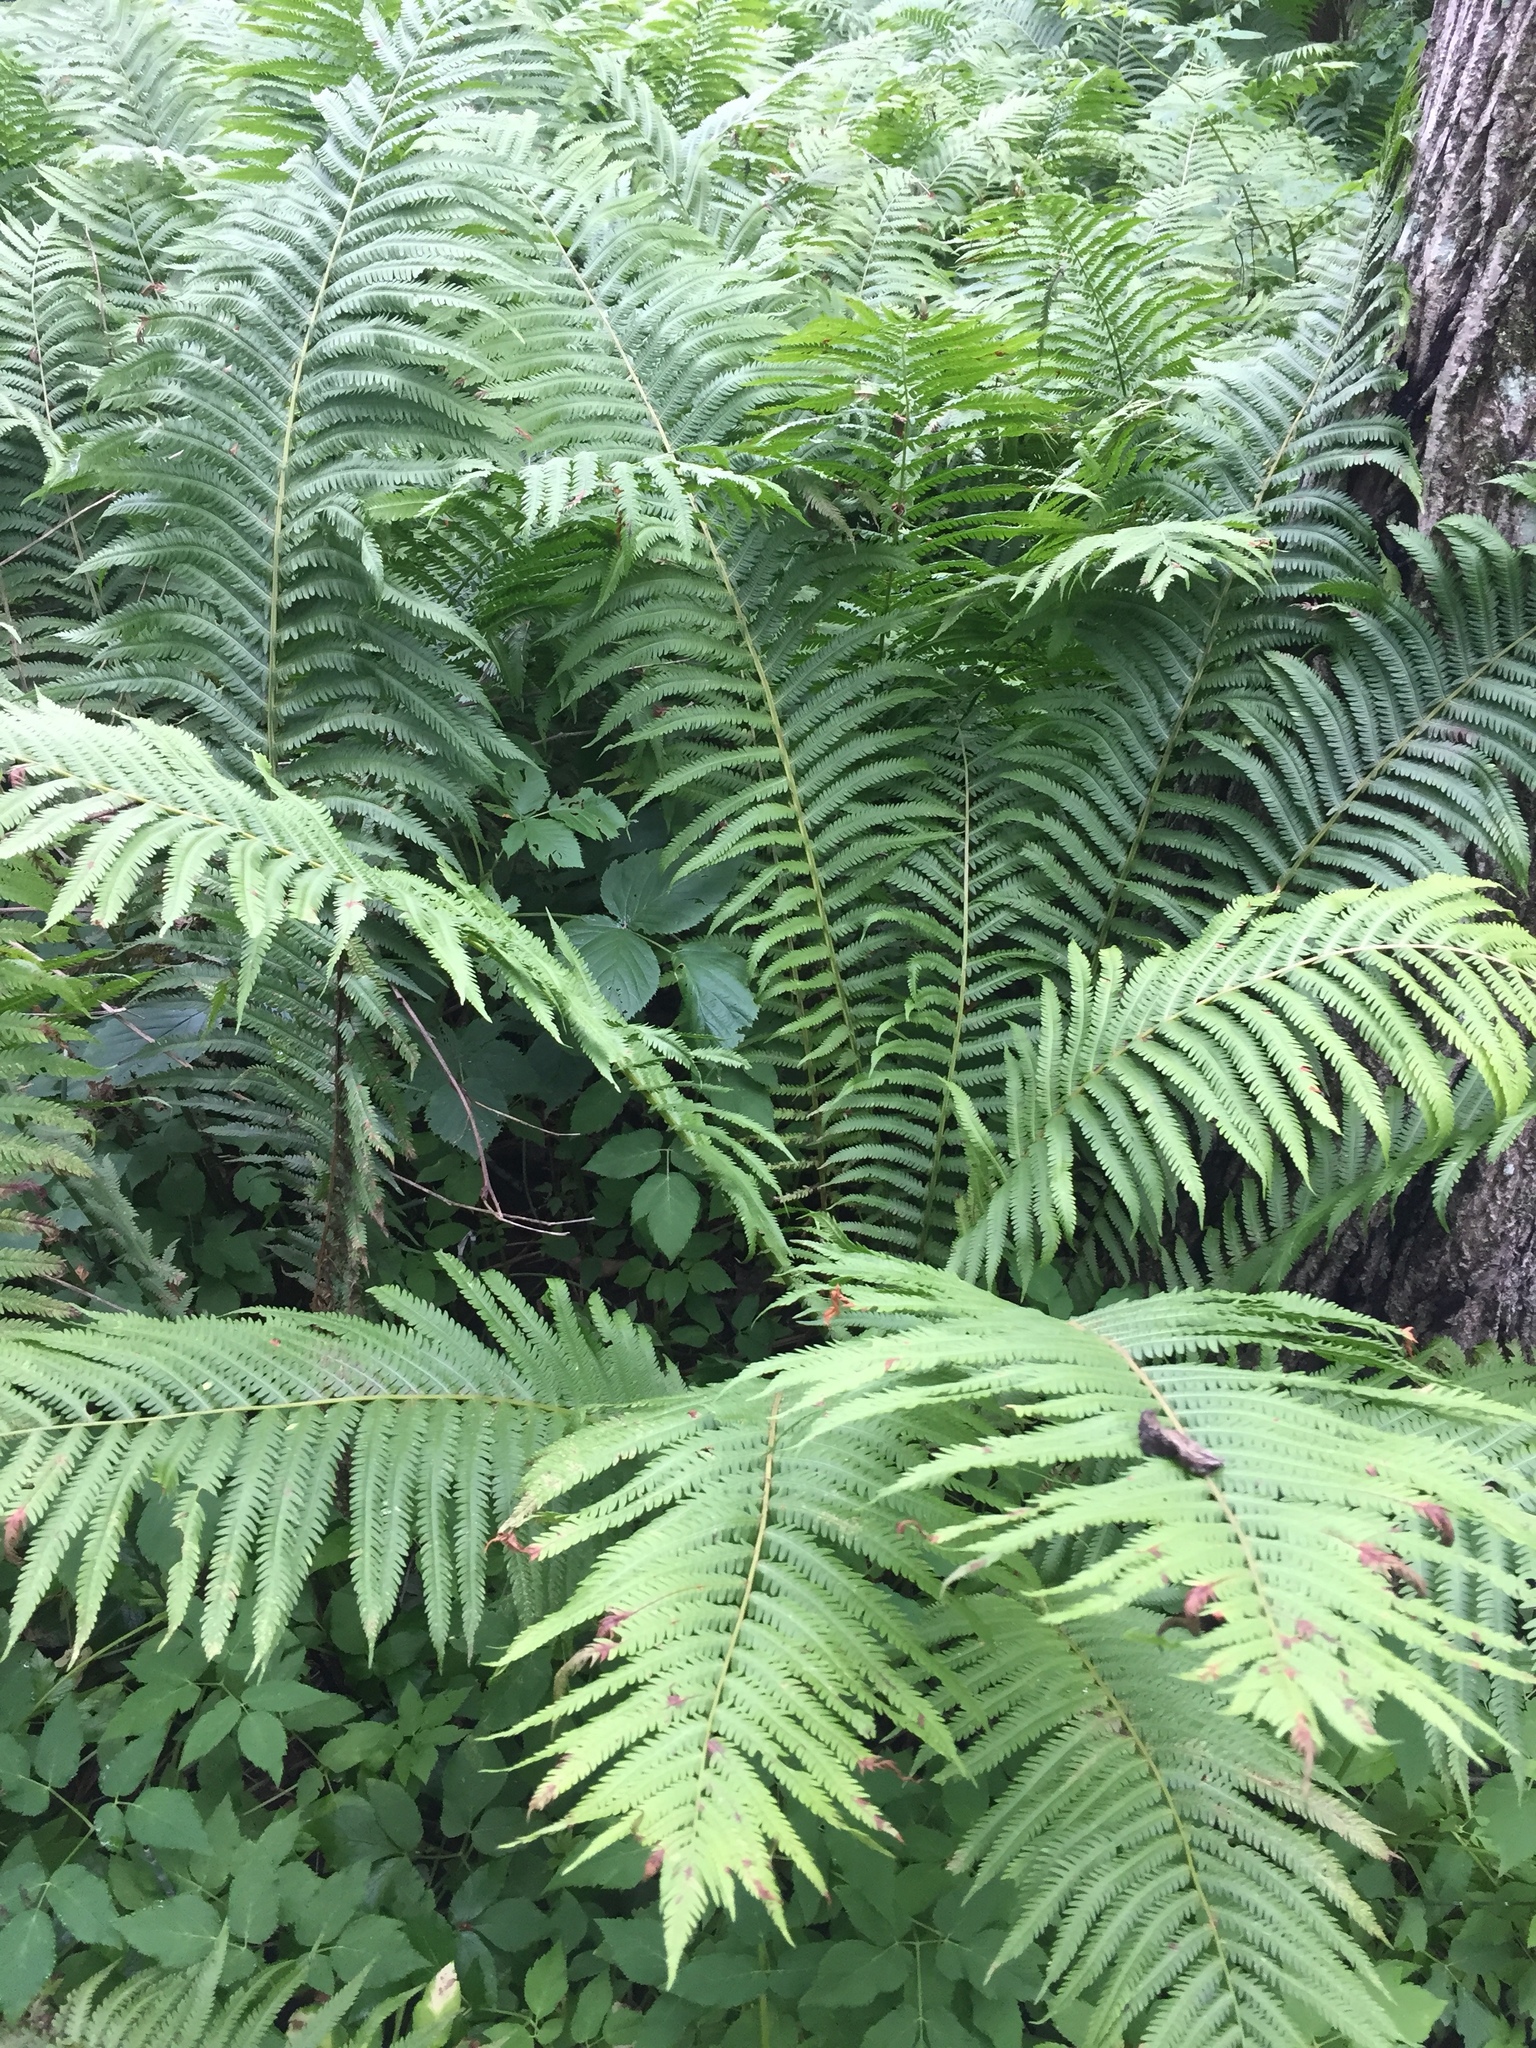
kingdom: Plantae
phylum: Tracheophyta
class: Polypodiopsida
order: Polypodiales
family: Onocleaceae
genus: Matteuccia
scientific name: Matteuccia struthiopteris
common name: Ostrich fern
